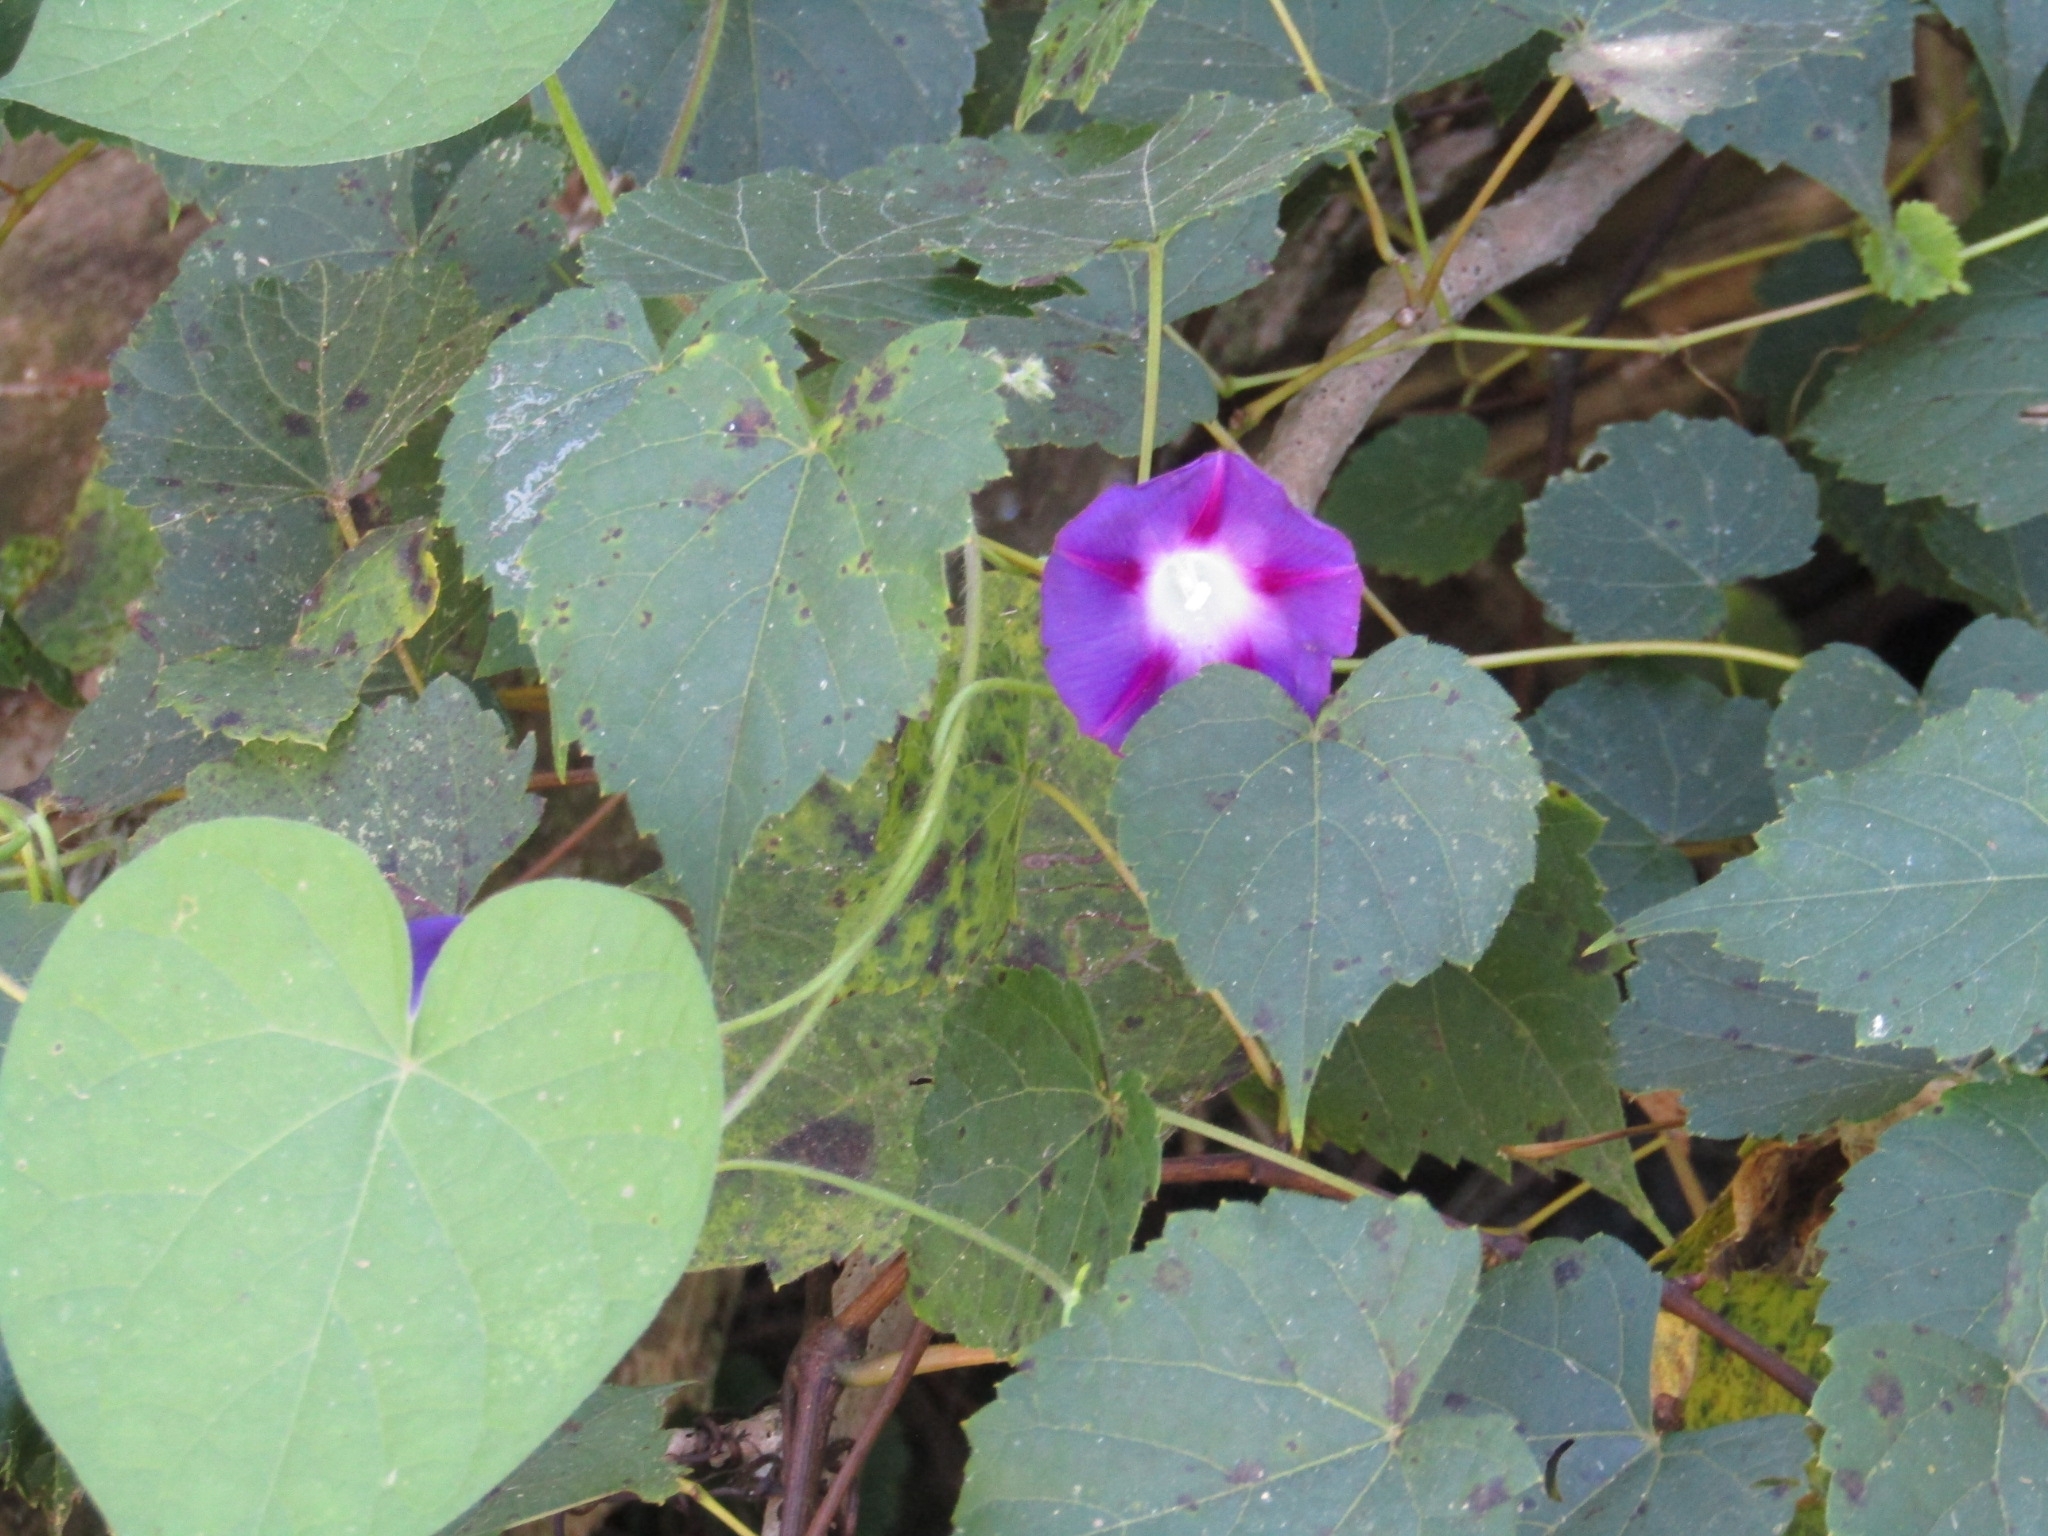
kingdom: Plantae
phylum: Tracheophyta
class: Magnoliopsida
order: Solanales
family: Convolvulaceae
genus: Ipomoea
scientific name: Ipomoea purpurea
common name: Common morning-glory
